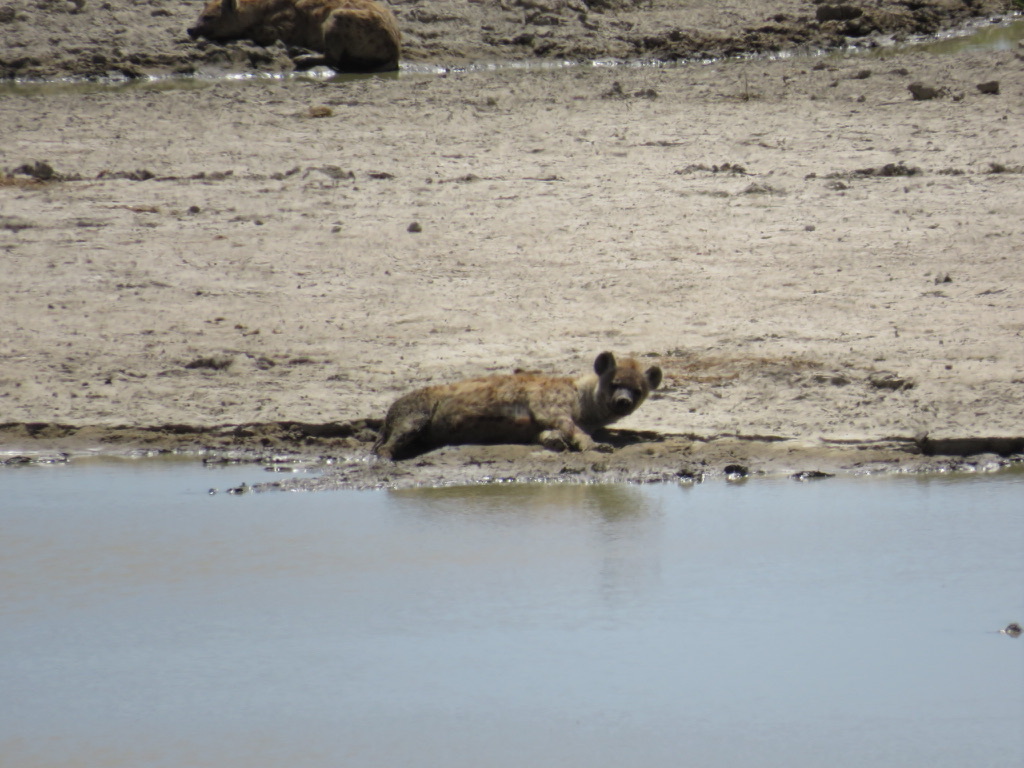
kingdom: Animalia
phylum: Chordata
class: Mammalia
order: Carnivora
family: Hyaenidae
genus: Crocuta
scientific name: Crocuta crocuta
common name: Spotted hyaena
